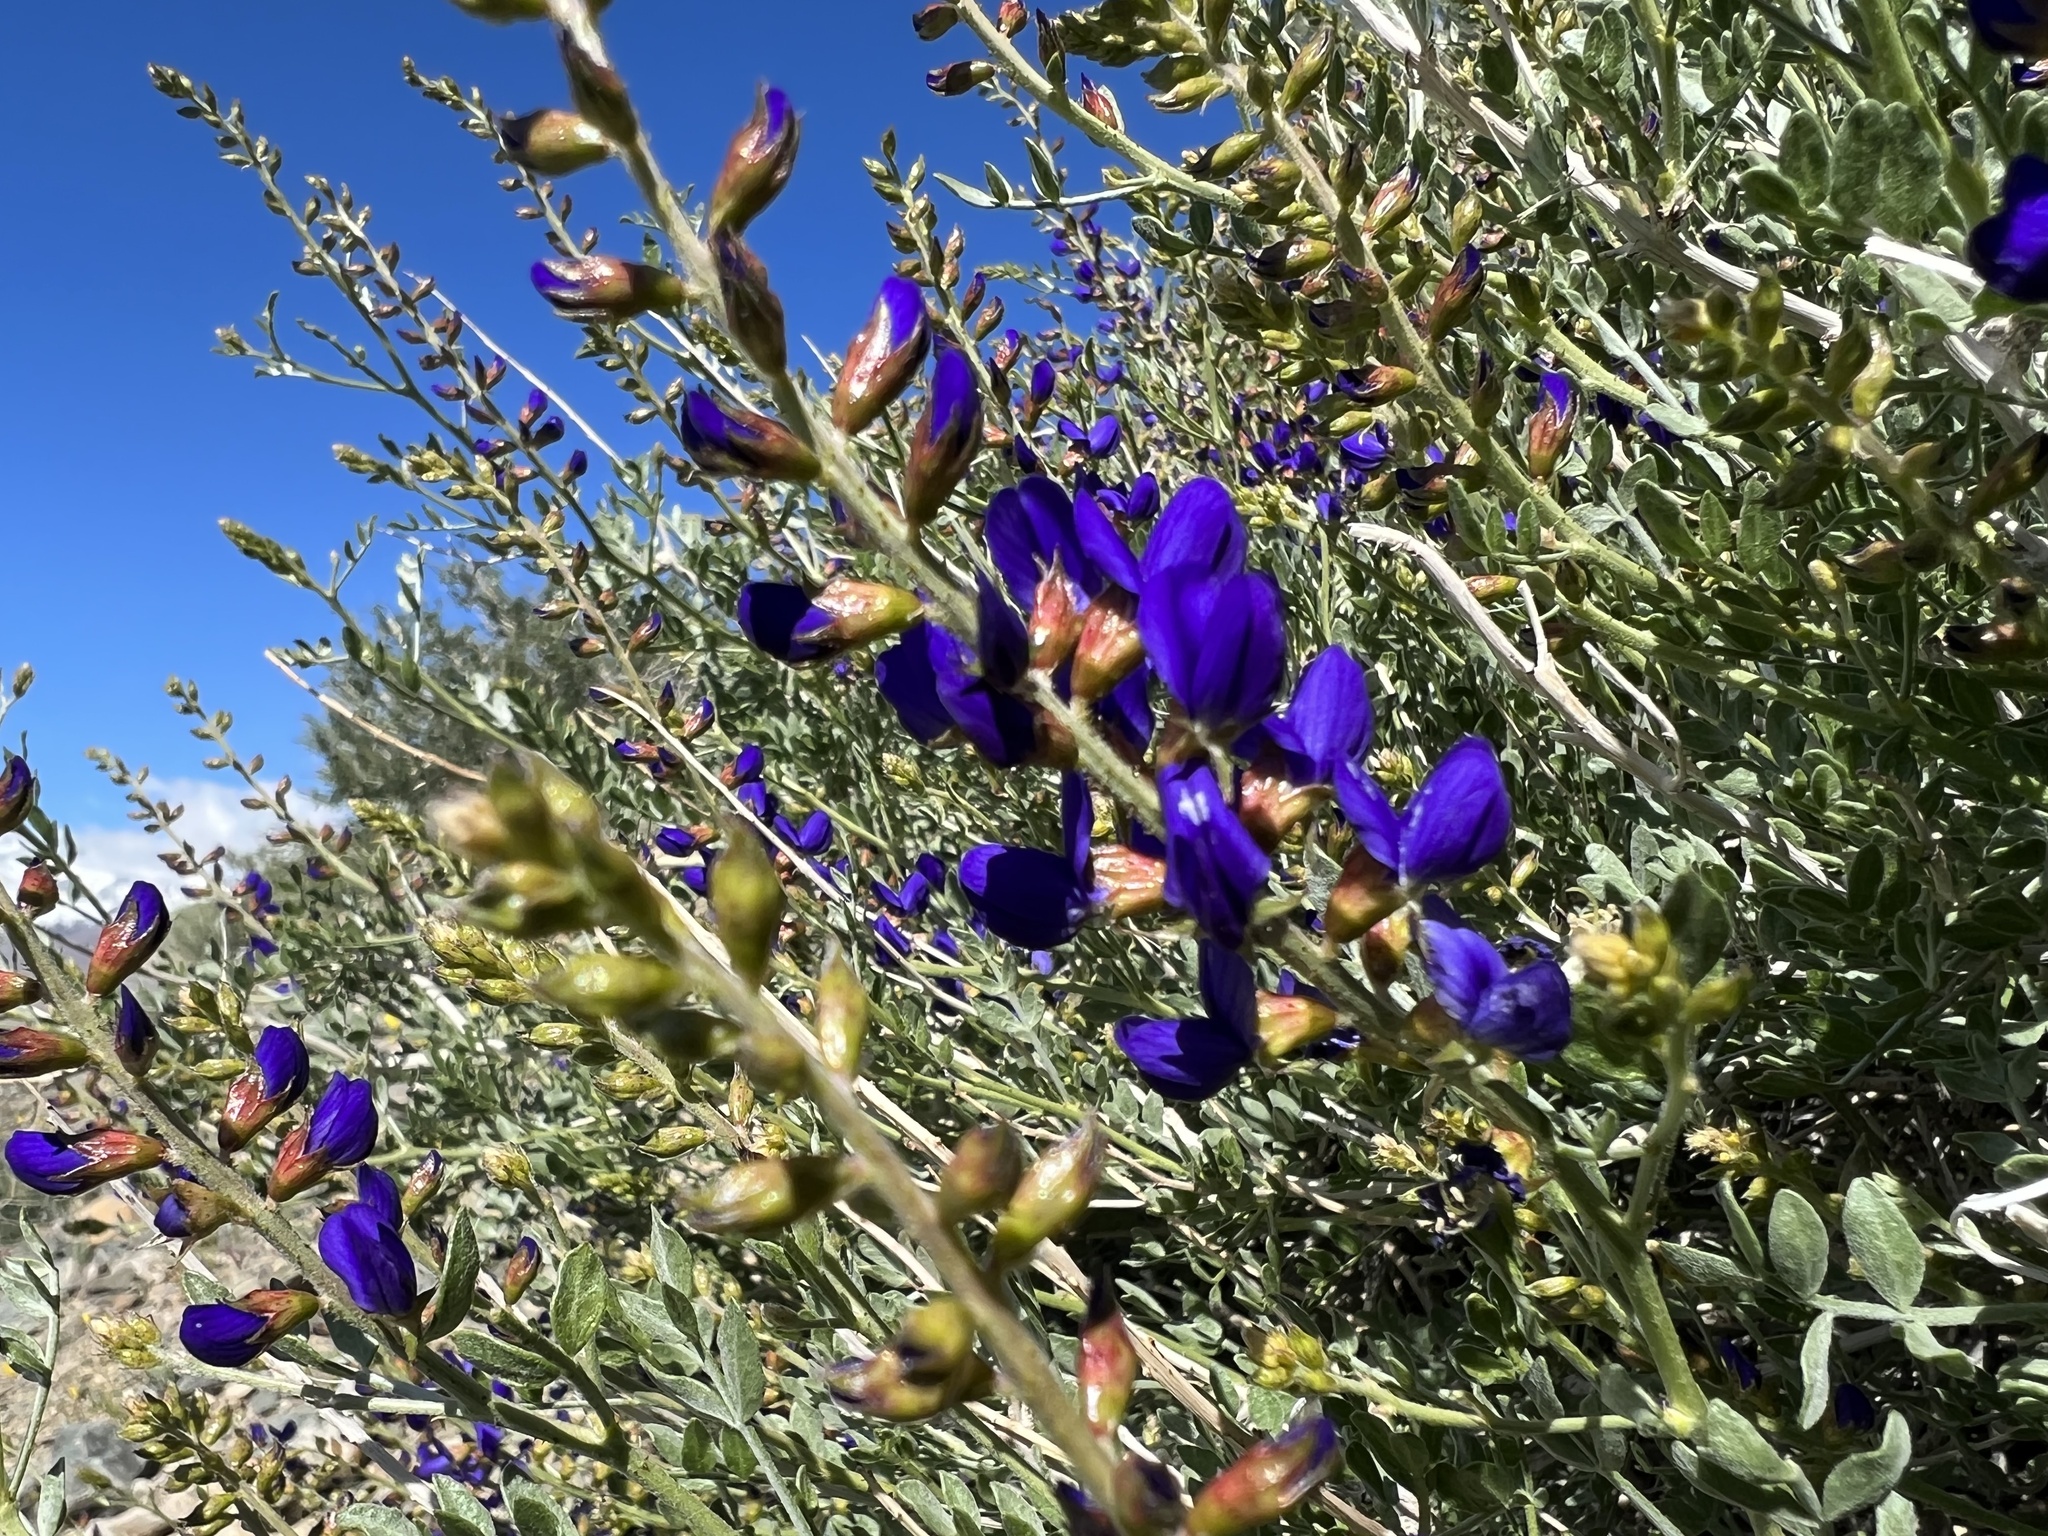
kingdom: Plantae
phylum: Tracheophyta
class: Magnoliopsida
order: Fabales
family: Fabaceae
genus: Psorothamnus
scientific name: Psorothamnus arborescens
